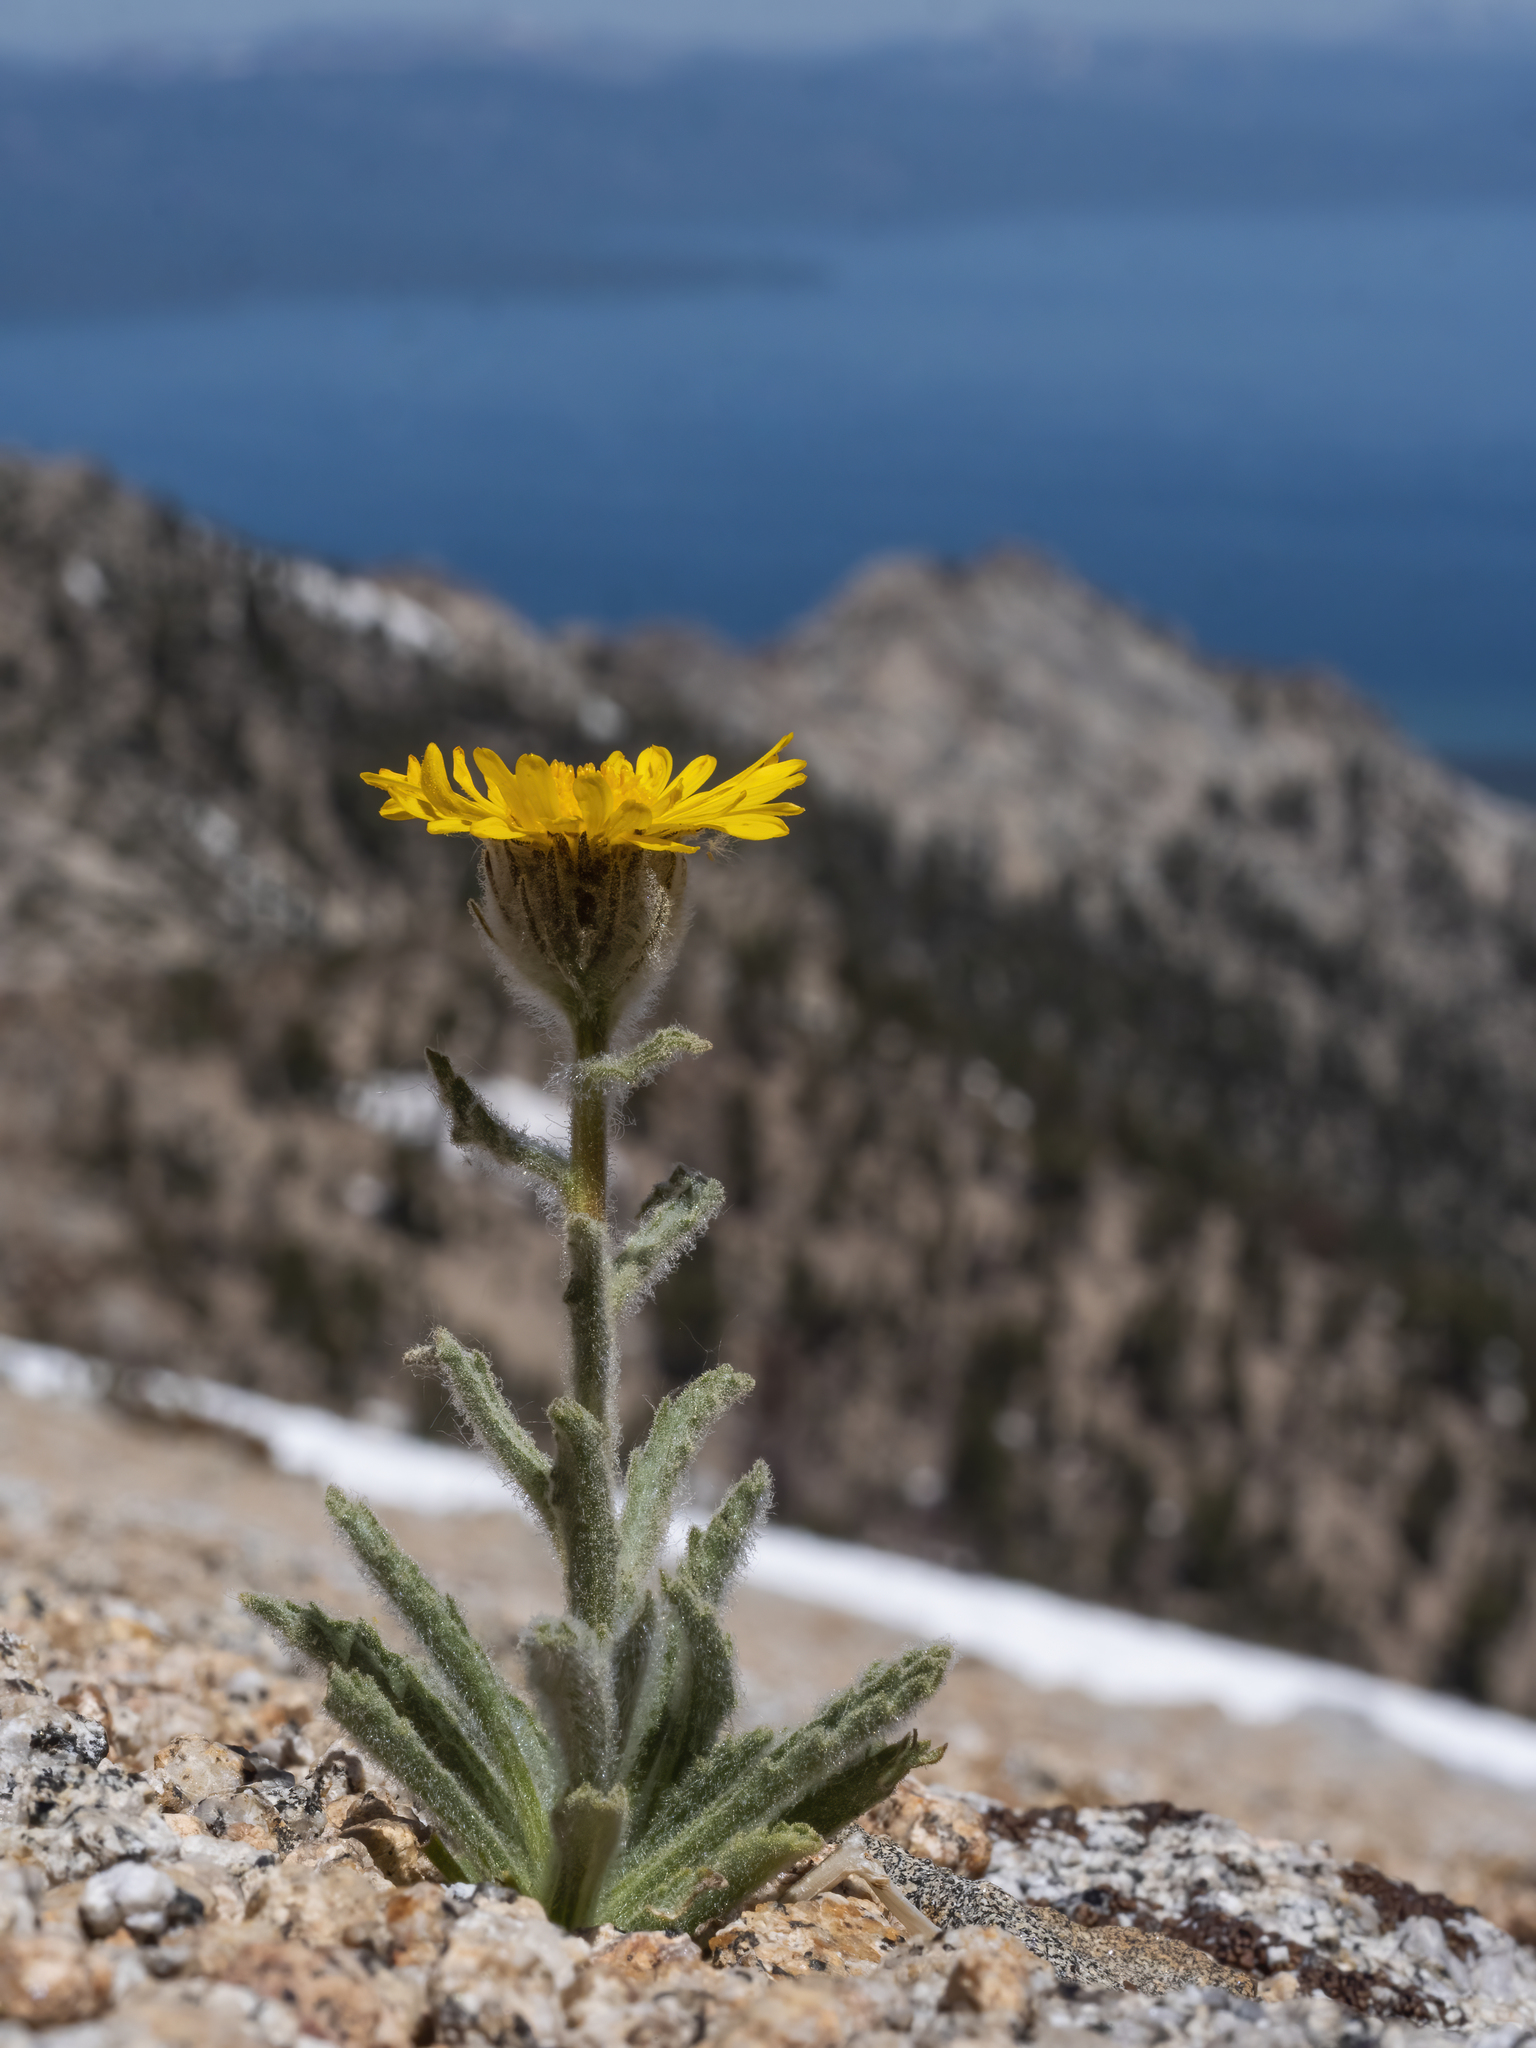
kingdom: Plantae
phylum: Tracheophyta
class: Magnoliopsida
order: Asterales
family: Asteraceae
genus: Hulsea
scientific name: Hulsea algida
